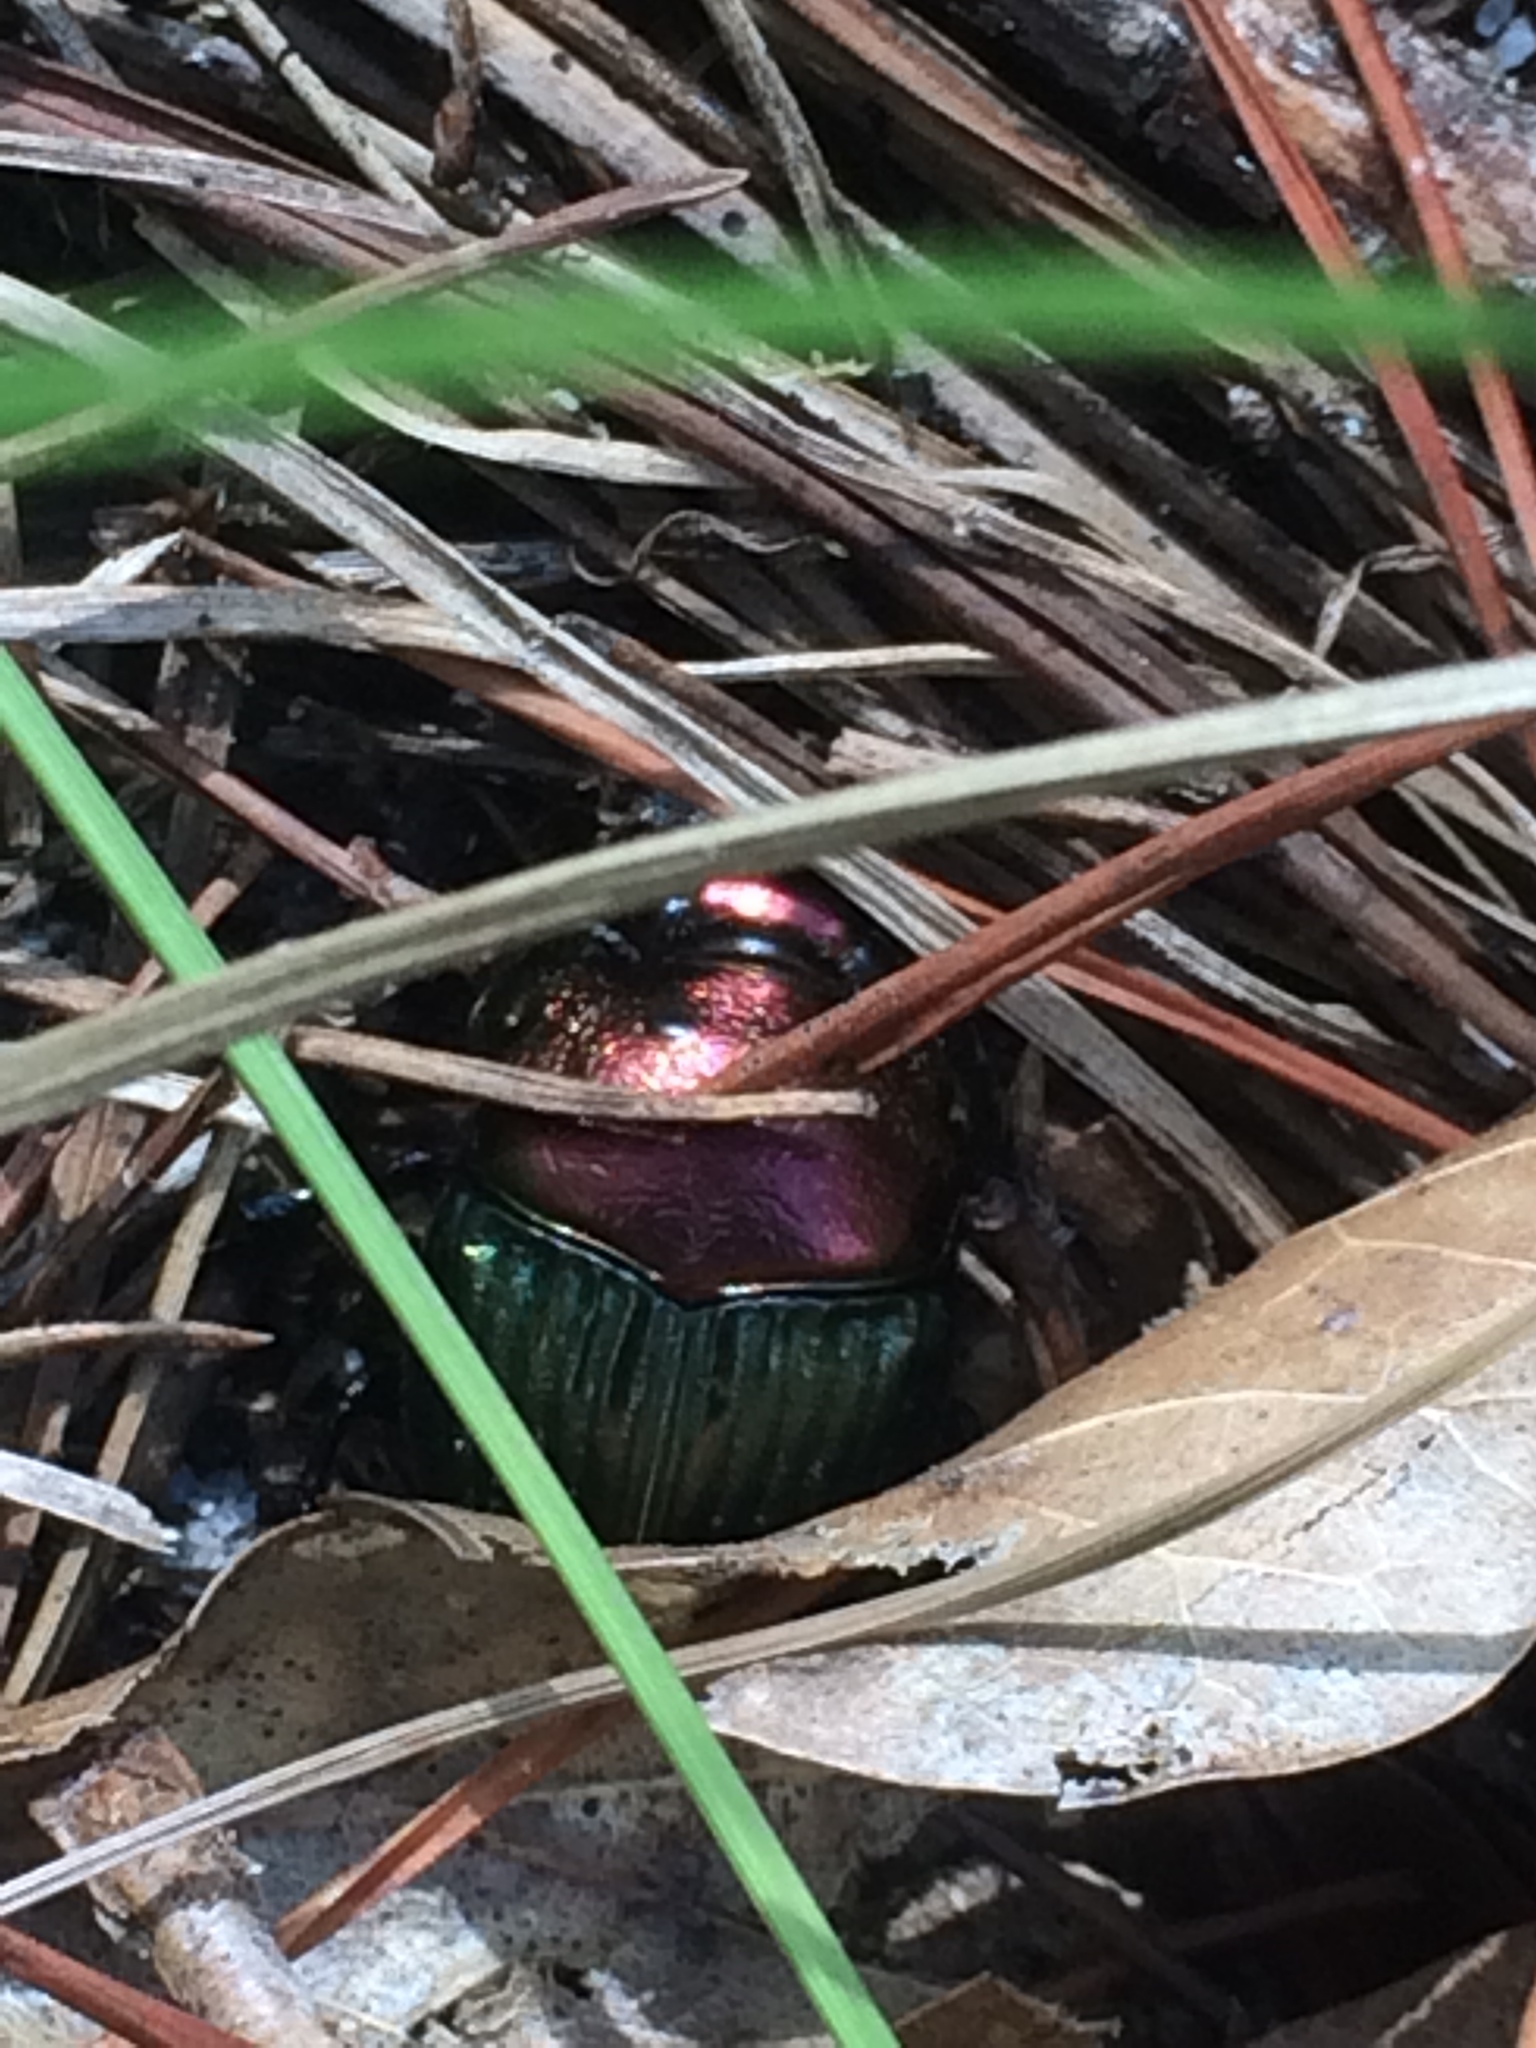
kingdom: Animalia
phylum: Arthropoda
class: Insecta
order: Coleoptera
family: Scarabaeidae
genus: Phanaeus
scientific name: Phanaeus igneus
